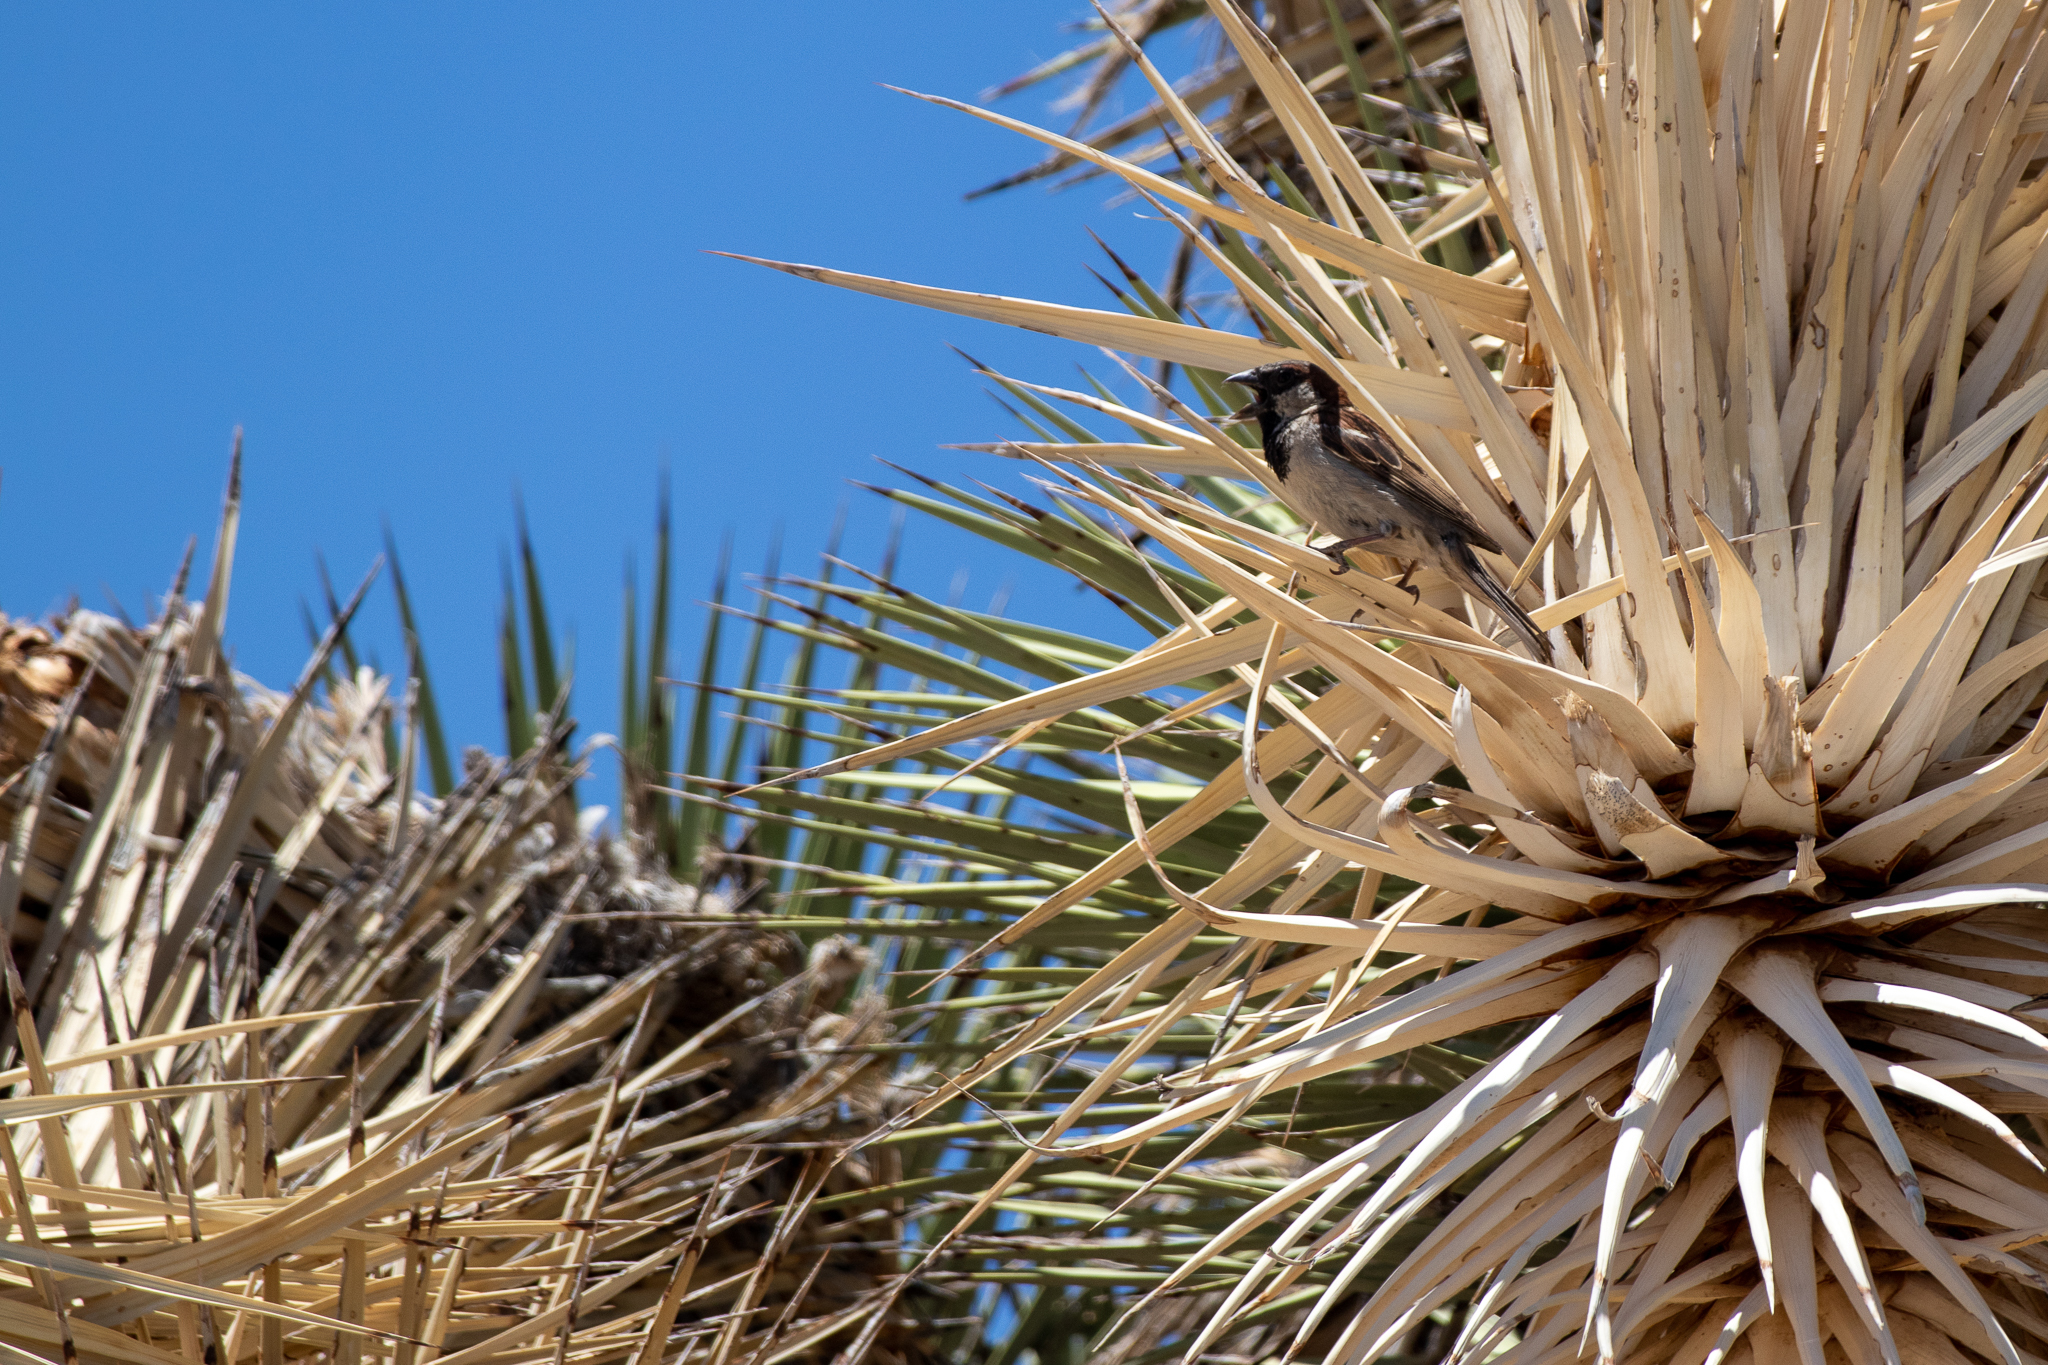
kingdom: Animalia
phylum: Chordata
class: Aves
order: Passeriformes
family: Passeridae
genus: Passer
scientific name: Passer domesticus
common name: House sparrow
